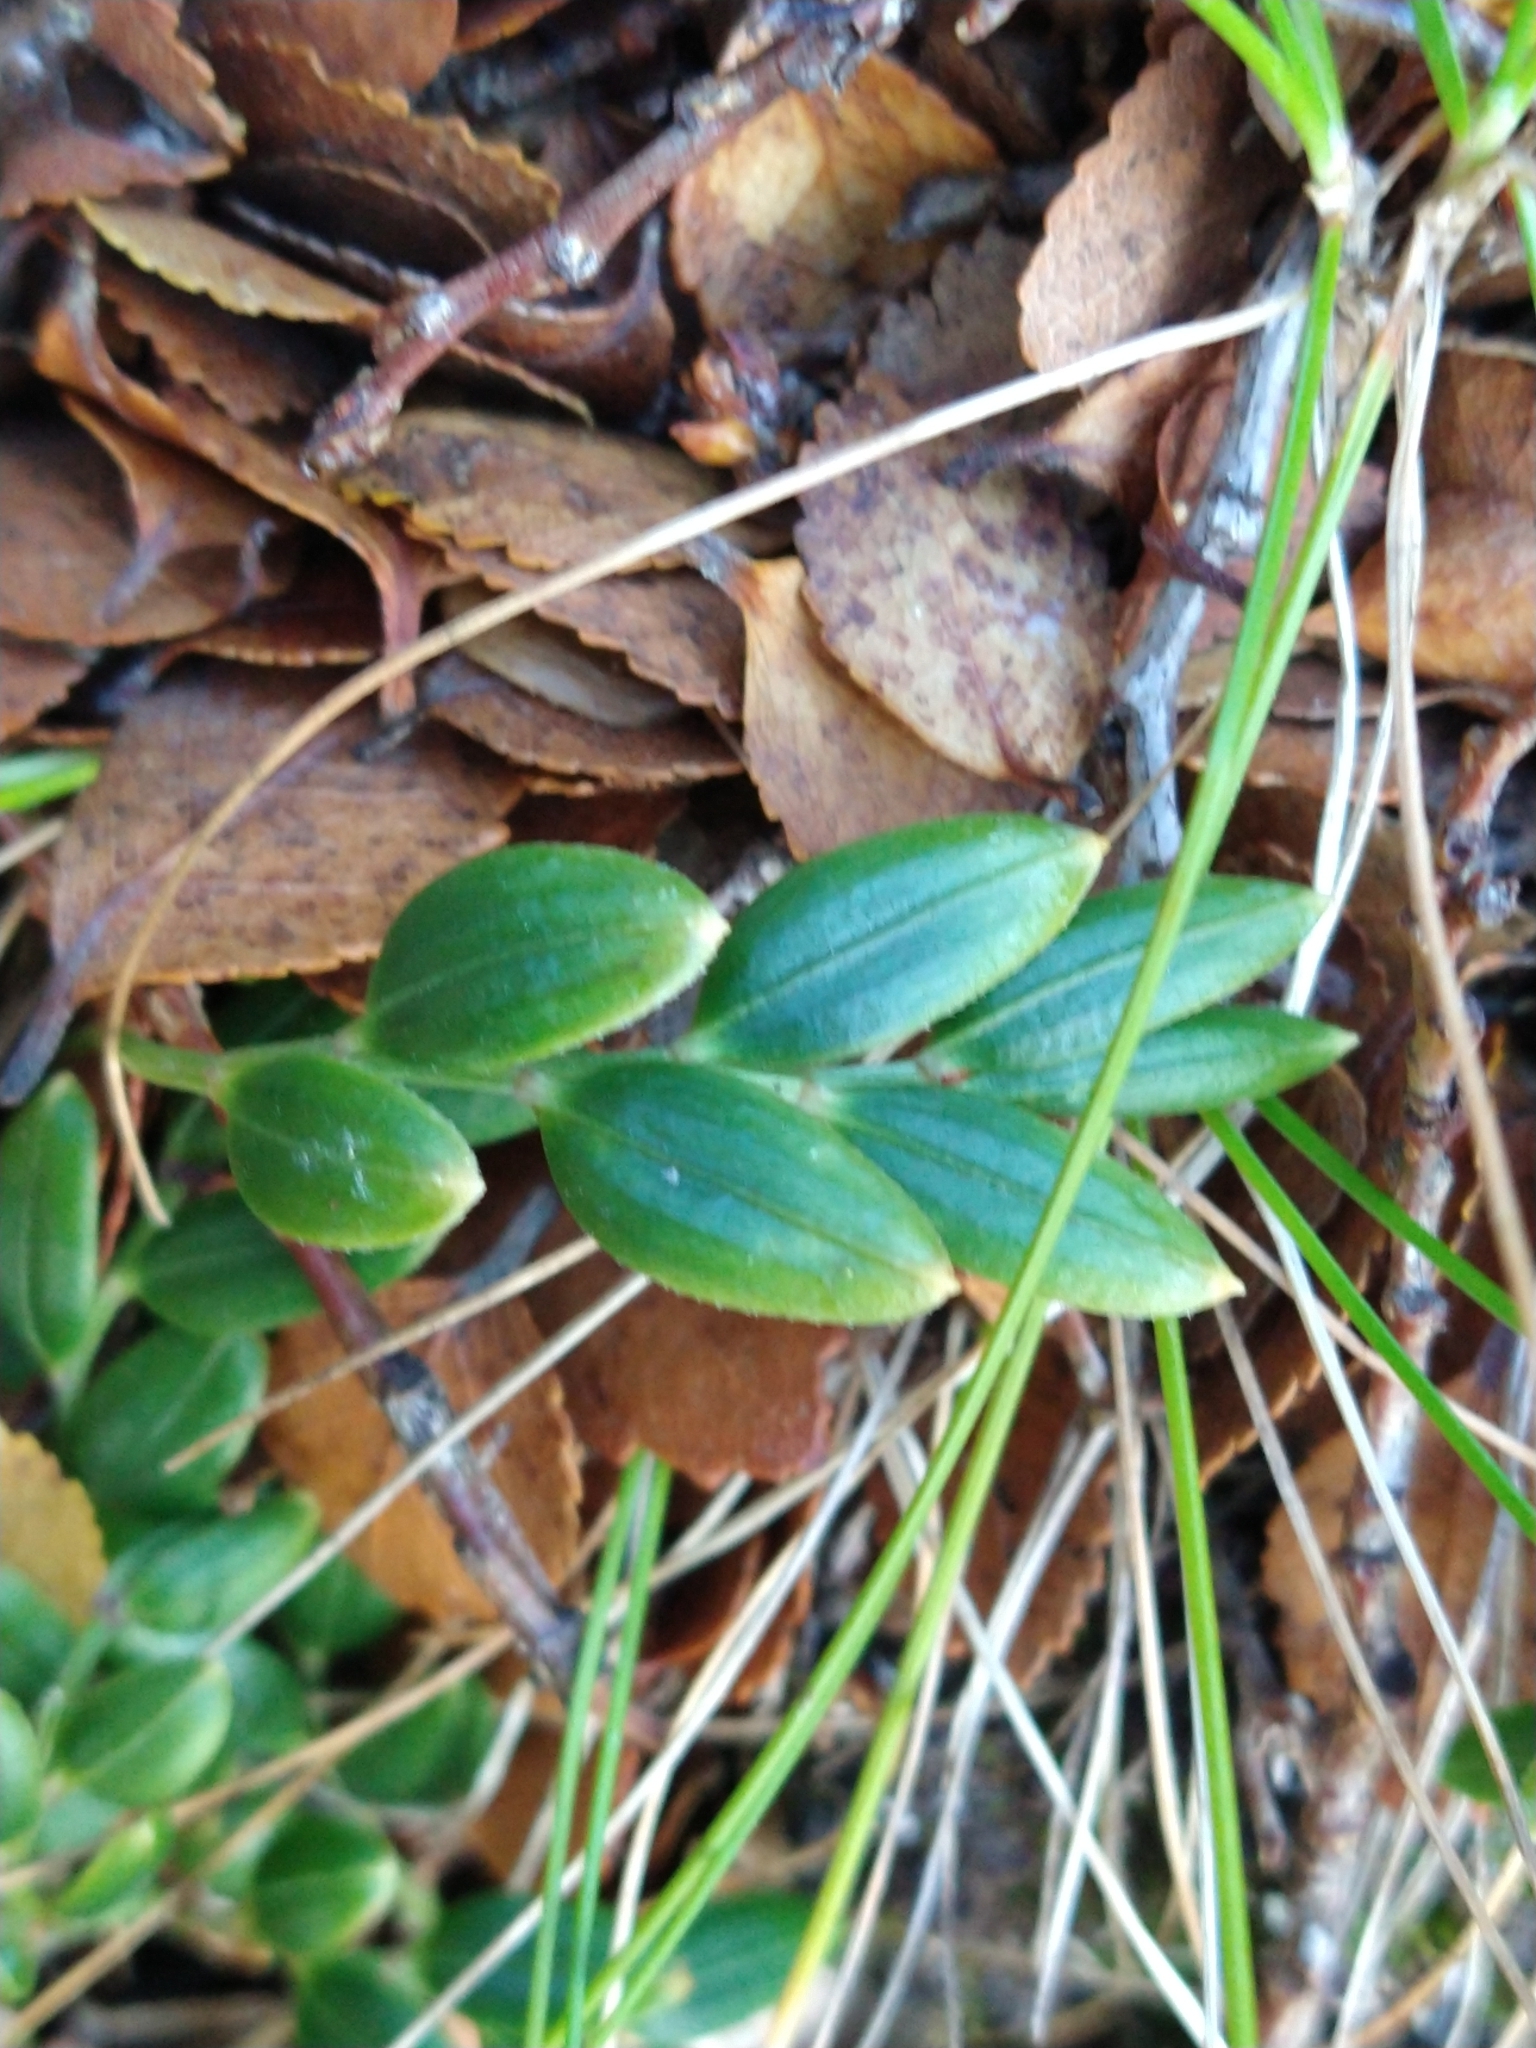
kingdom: Plantae
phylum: Tracheophyta
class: Liliopsida
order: Liliales
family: Alstroemeriaceae
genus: Luzuriaga
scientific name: Luzuriaga marginata
